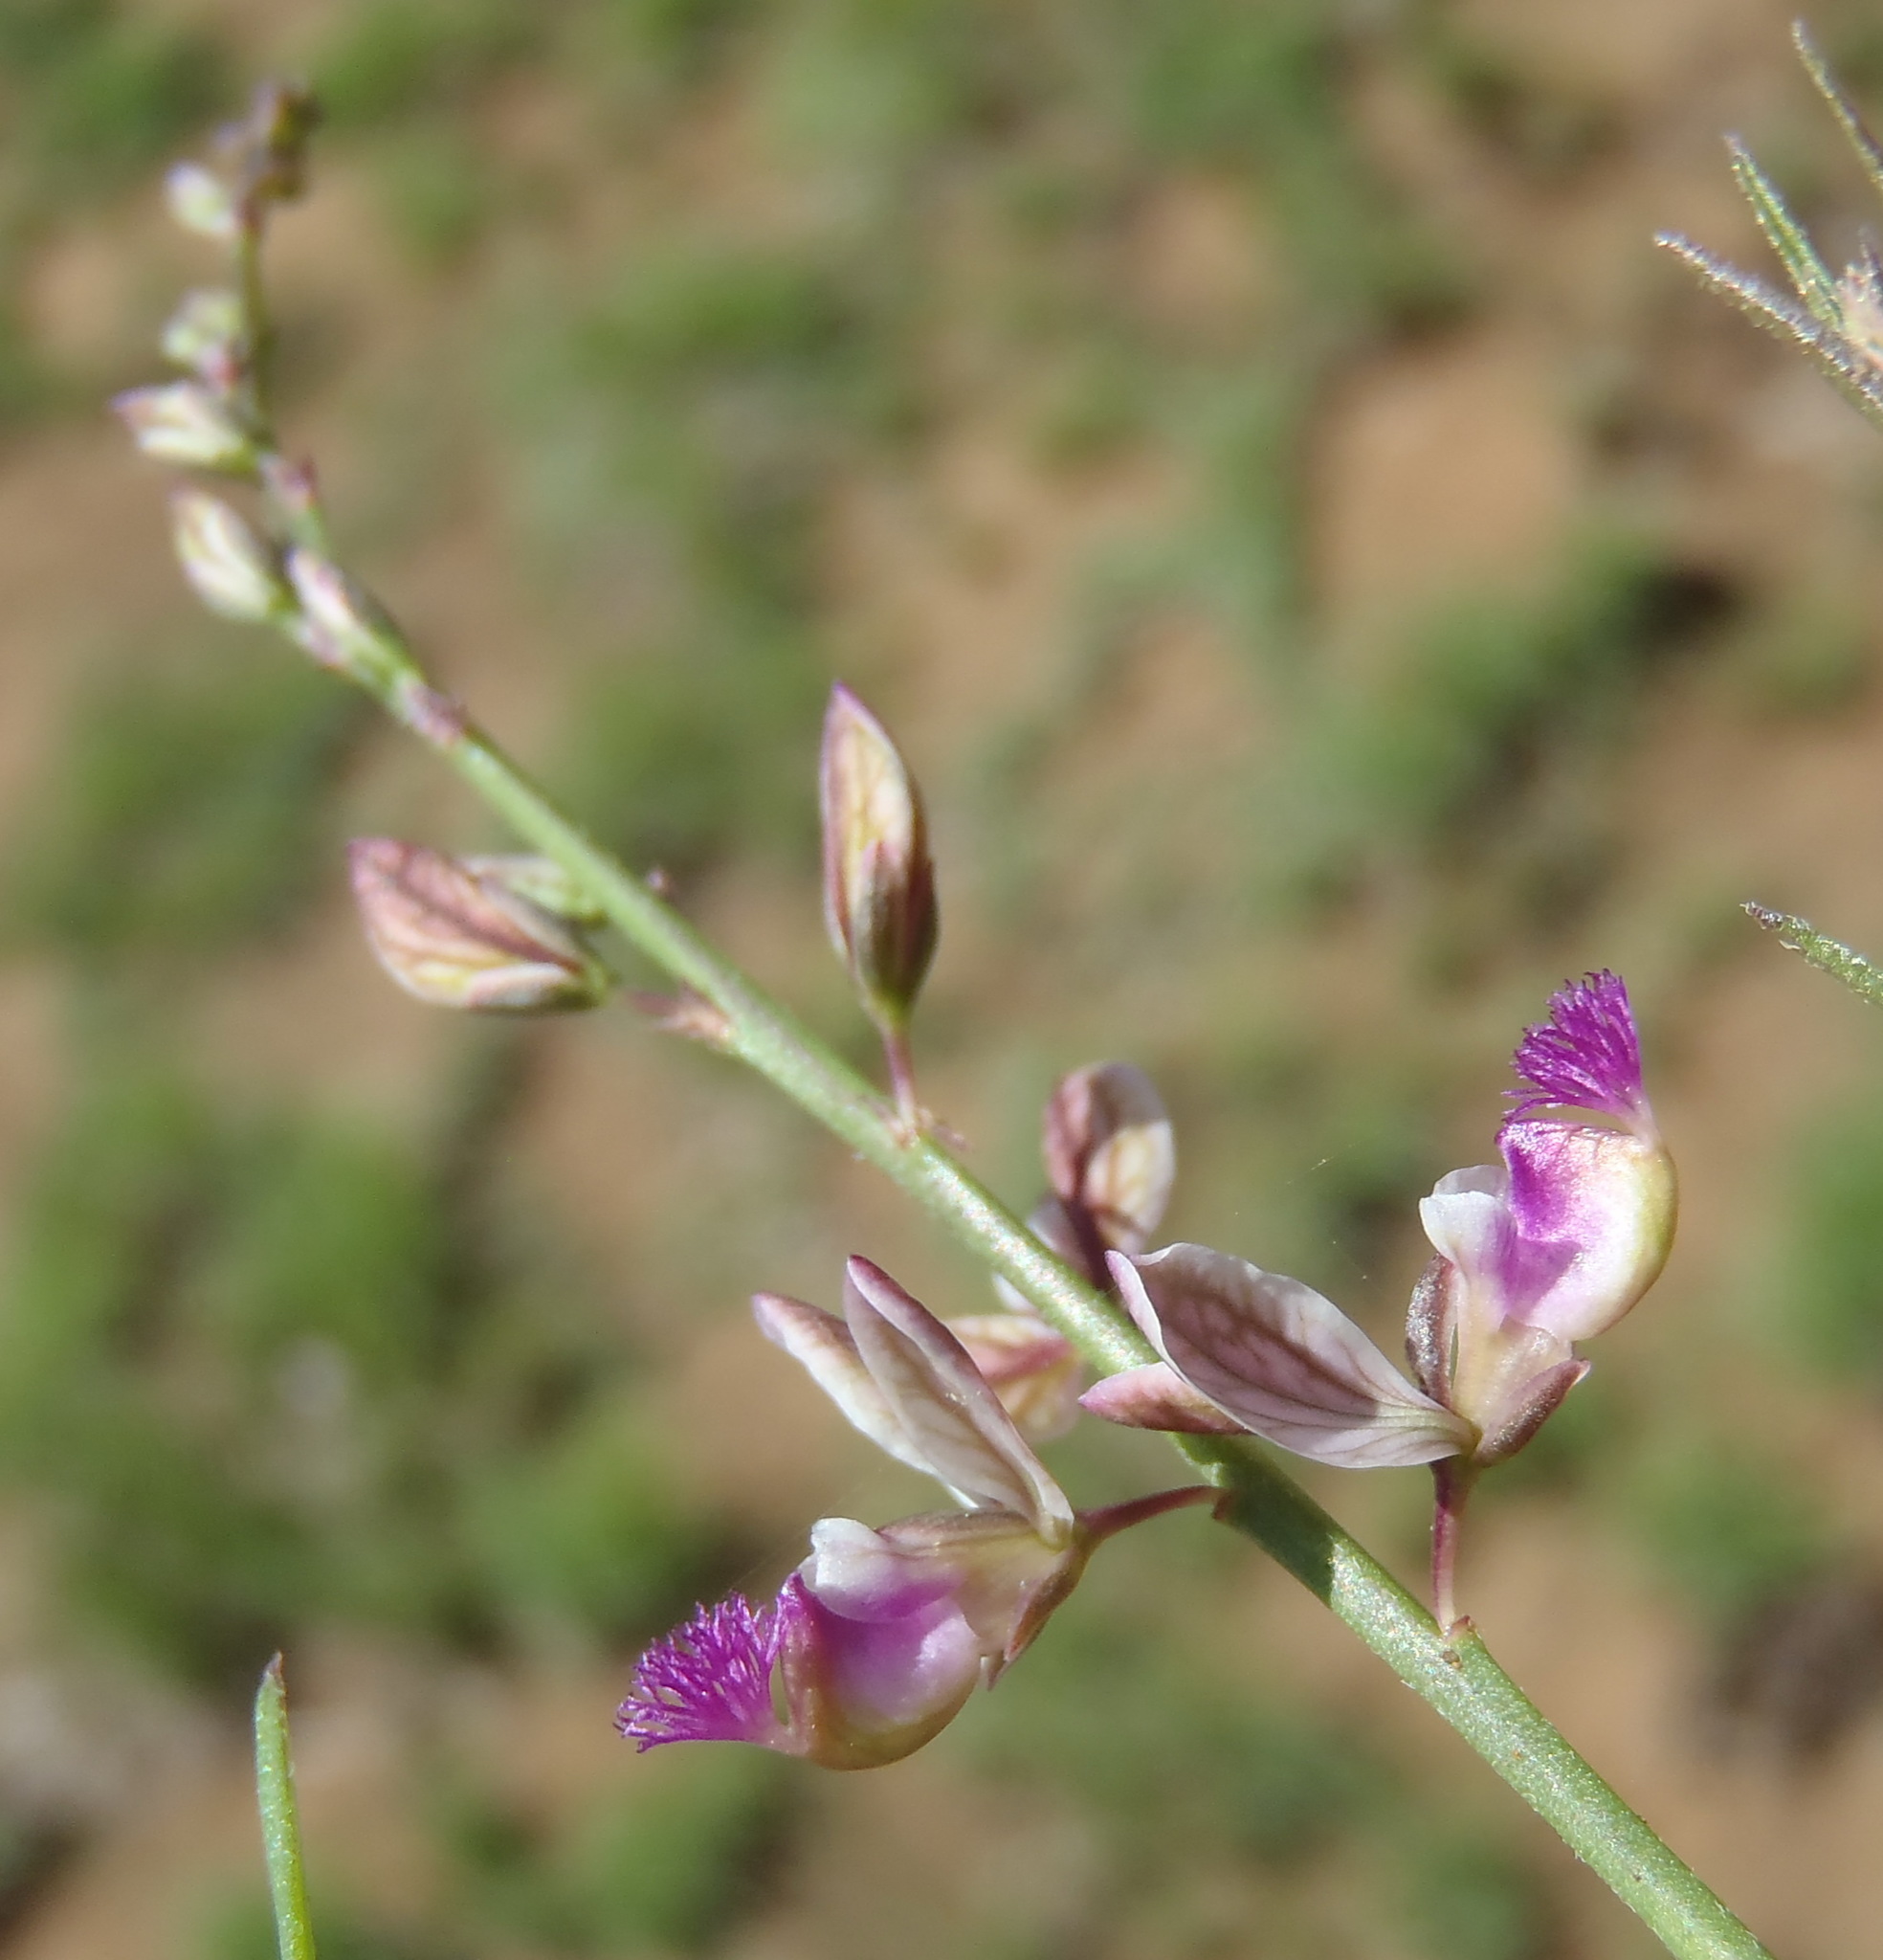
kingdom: Plantae
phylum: Tracheophyta
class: Magnoliopsida
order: Fabales
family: Polygalaceae
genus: Polygala
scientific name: Polygala hottentotta
